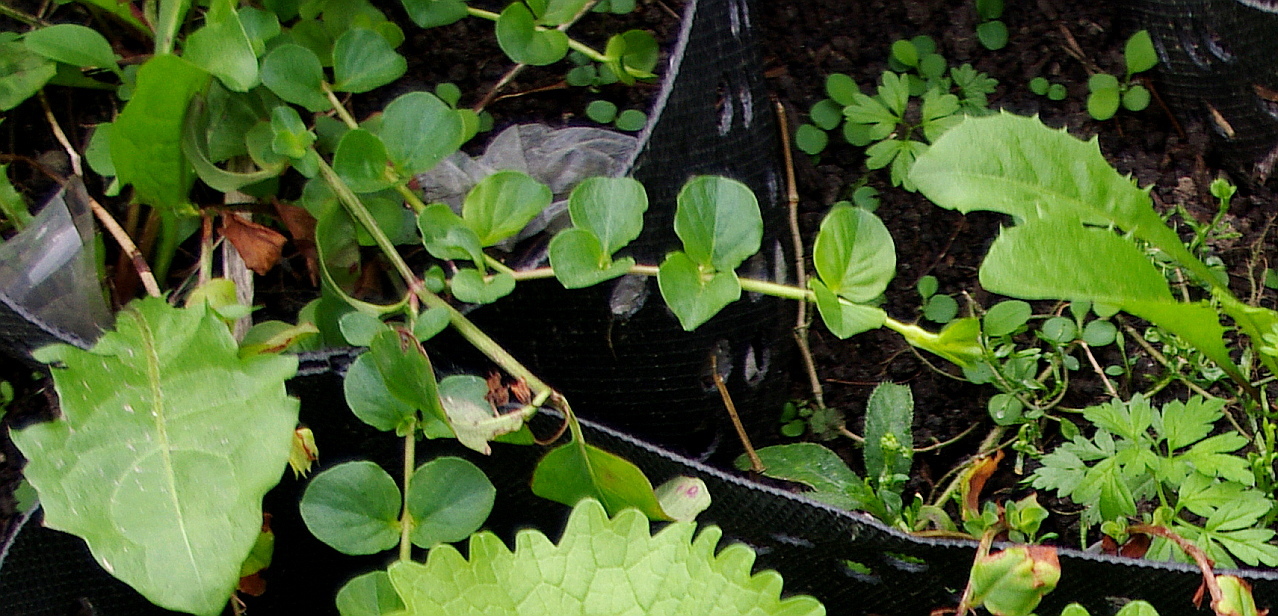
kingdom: Plantae
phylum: Tracheophyta
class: Magnoliopsida
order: Ericales
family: Primulaceae
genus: Lysimachia
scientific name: Lysimachia nummularia
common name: Moneywort
